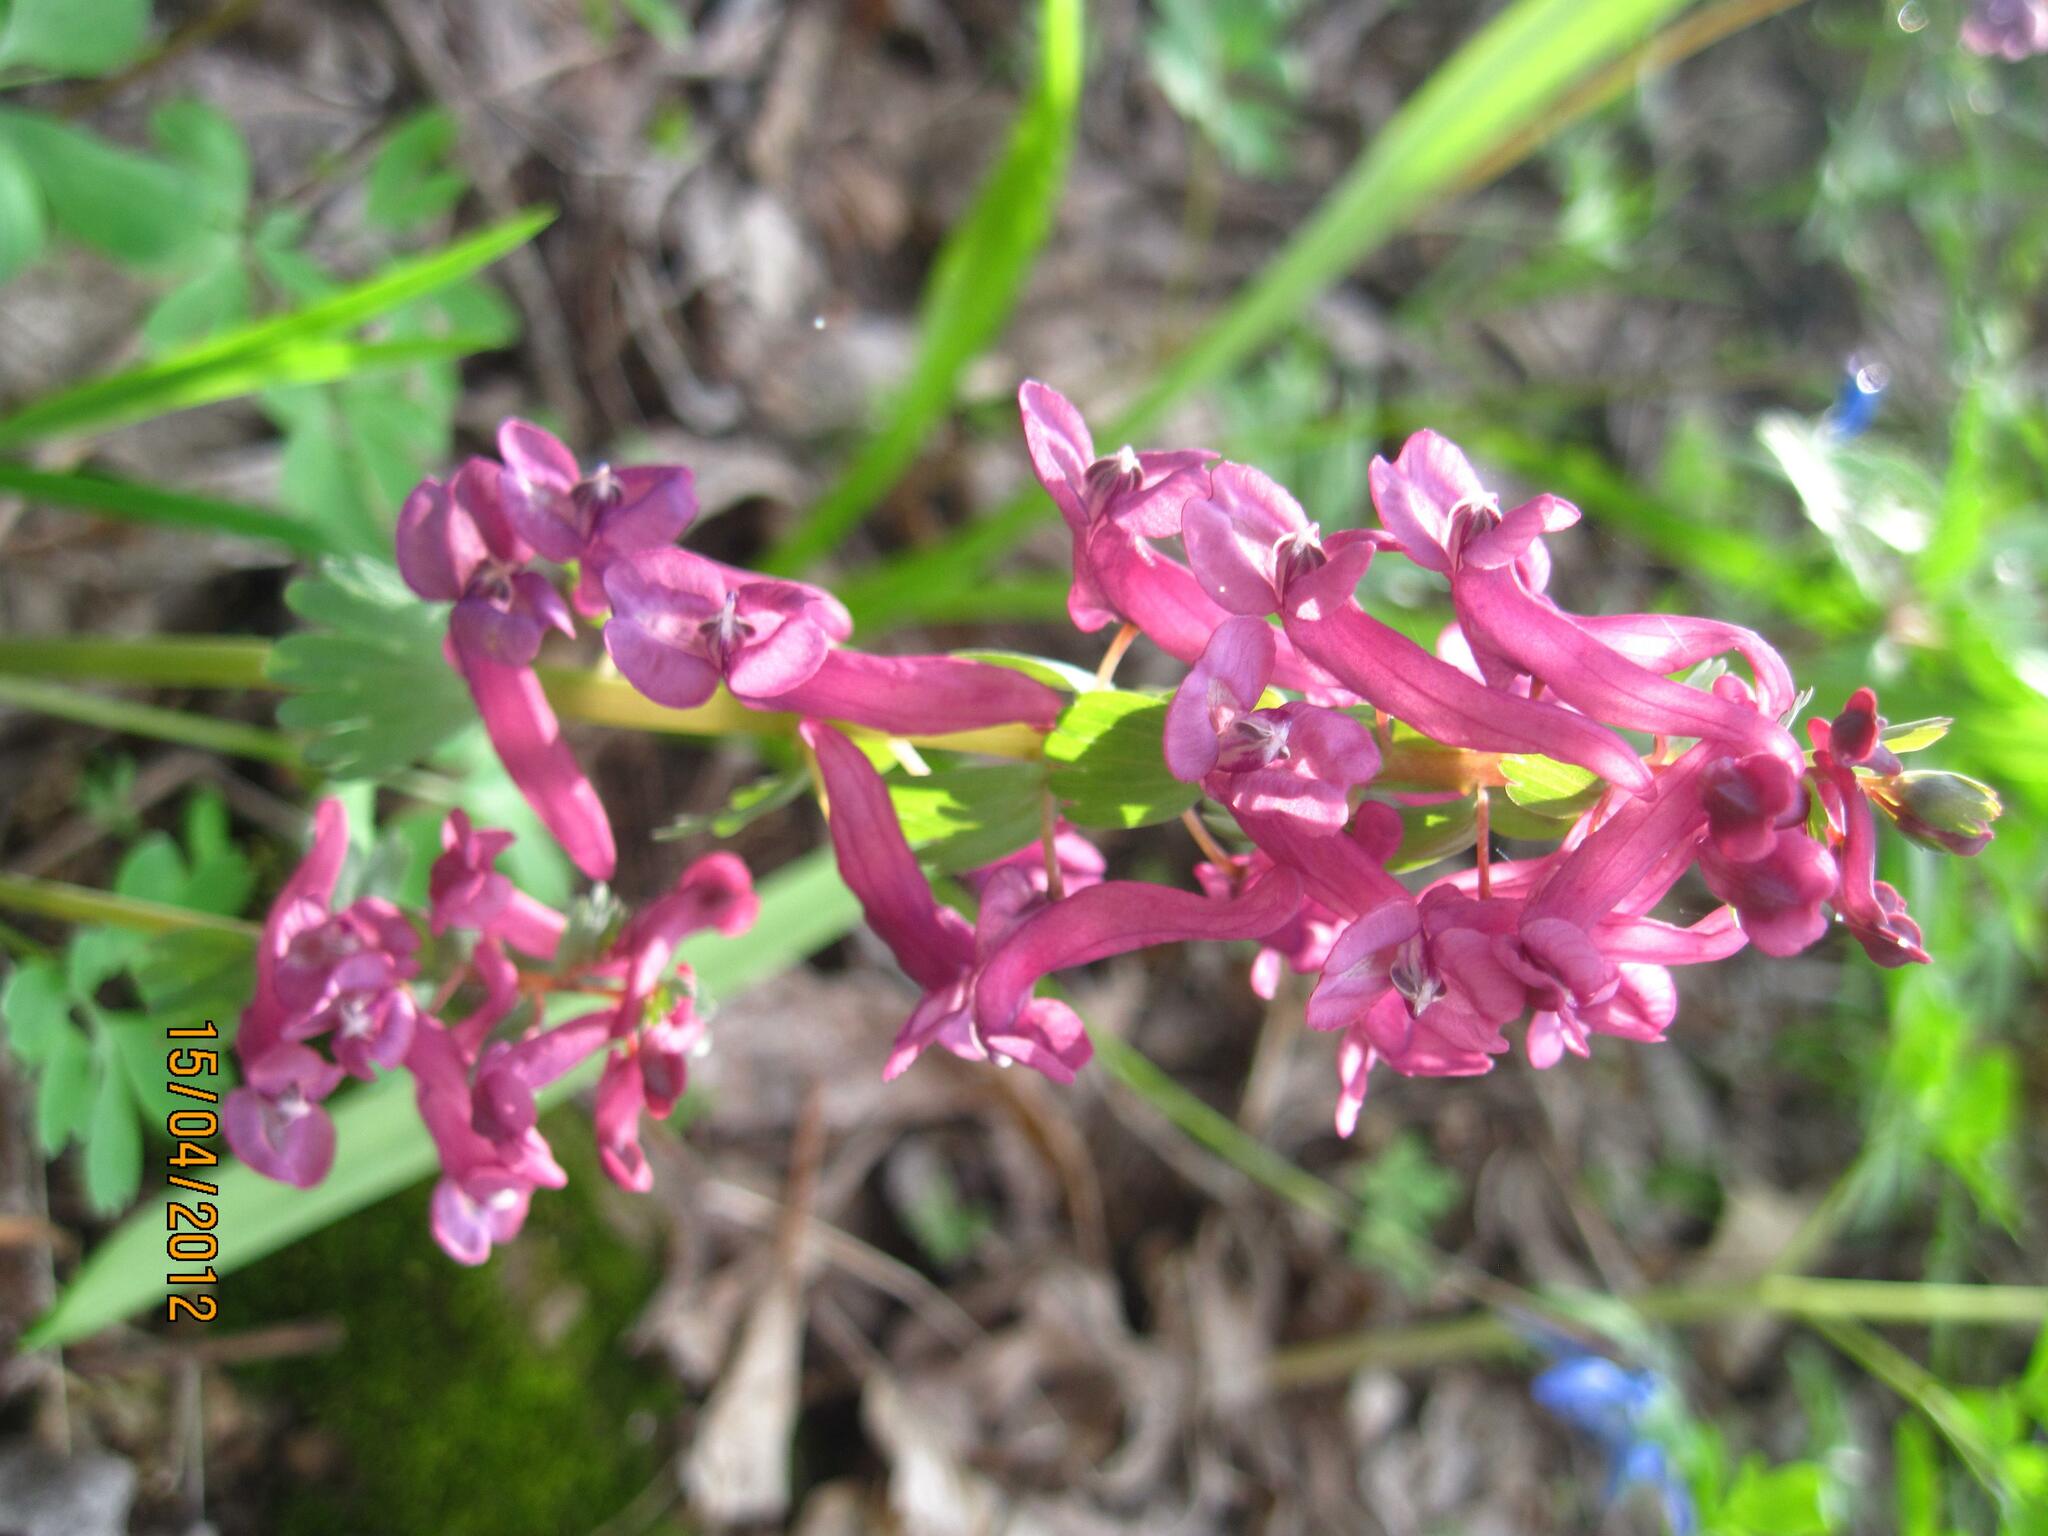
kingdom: Plantae
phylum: Tracheophyta
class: Magnoliopsida
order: Ranunculales
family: Papaveraceae
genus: Corydalis
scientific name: Corydalis solida
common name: Bird-in-a-bush
